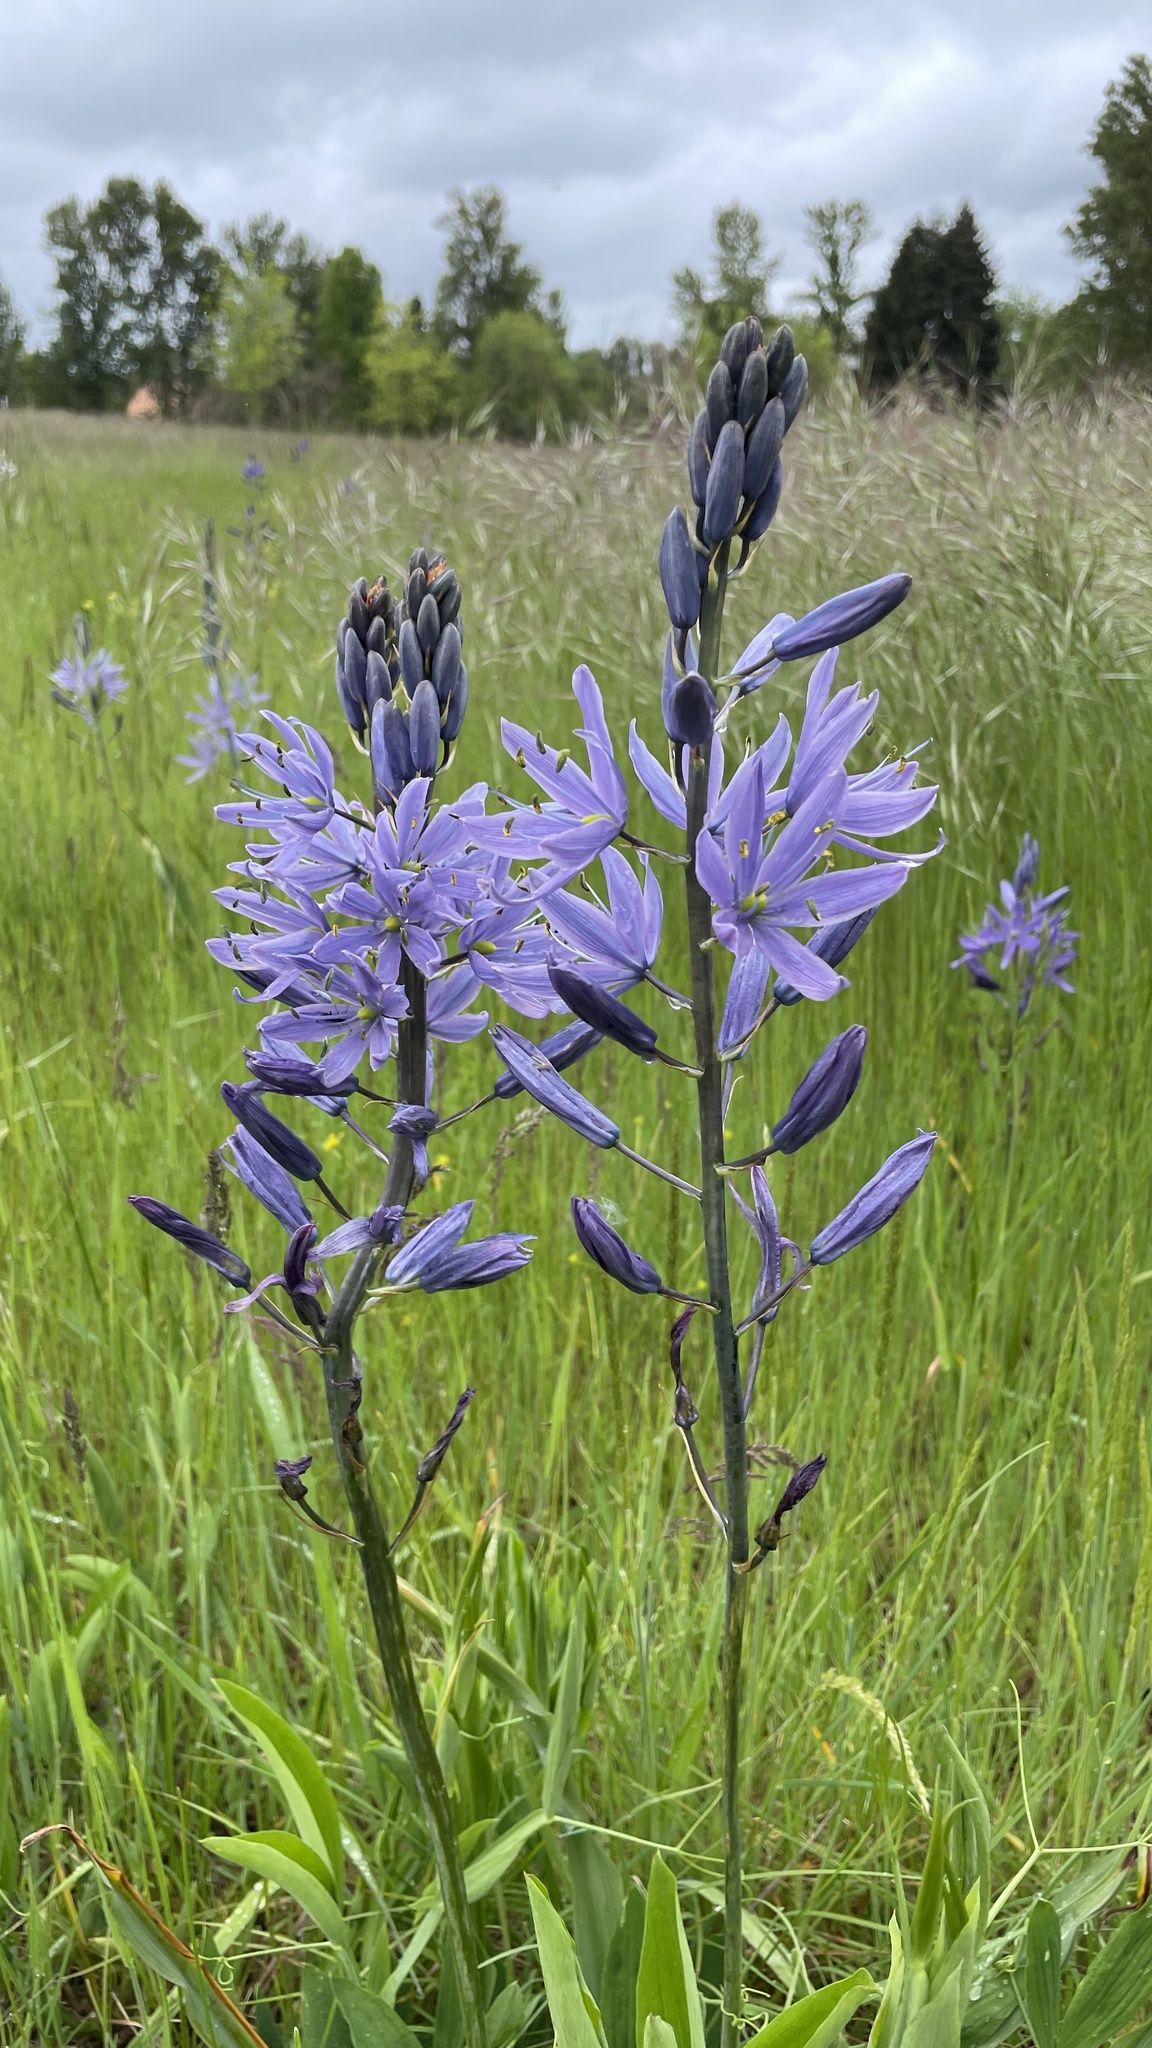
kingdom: Plantae
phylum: Tracheophyta
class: Liliopsida
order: Asparagales
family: Asparagaceae
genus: Camassia
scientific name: Camassia leichtlinii
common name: Leichtlin's camas
